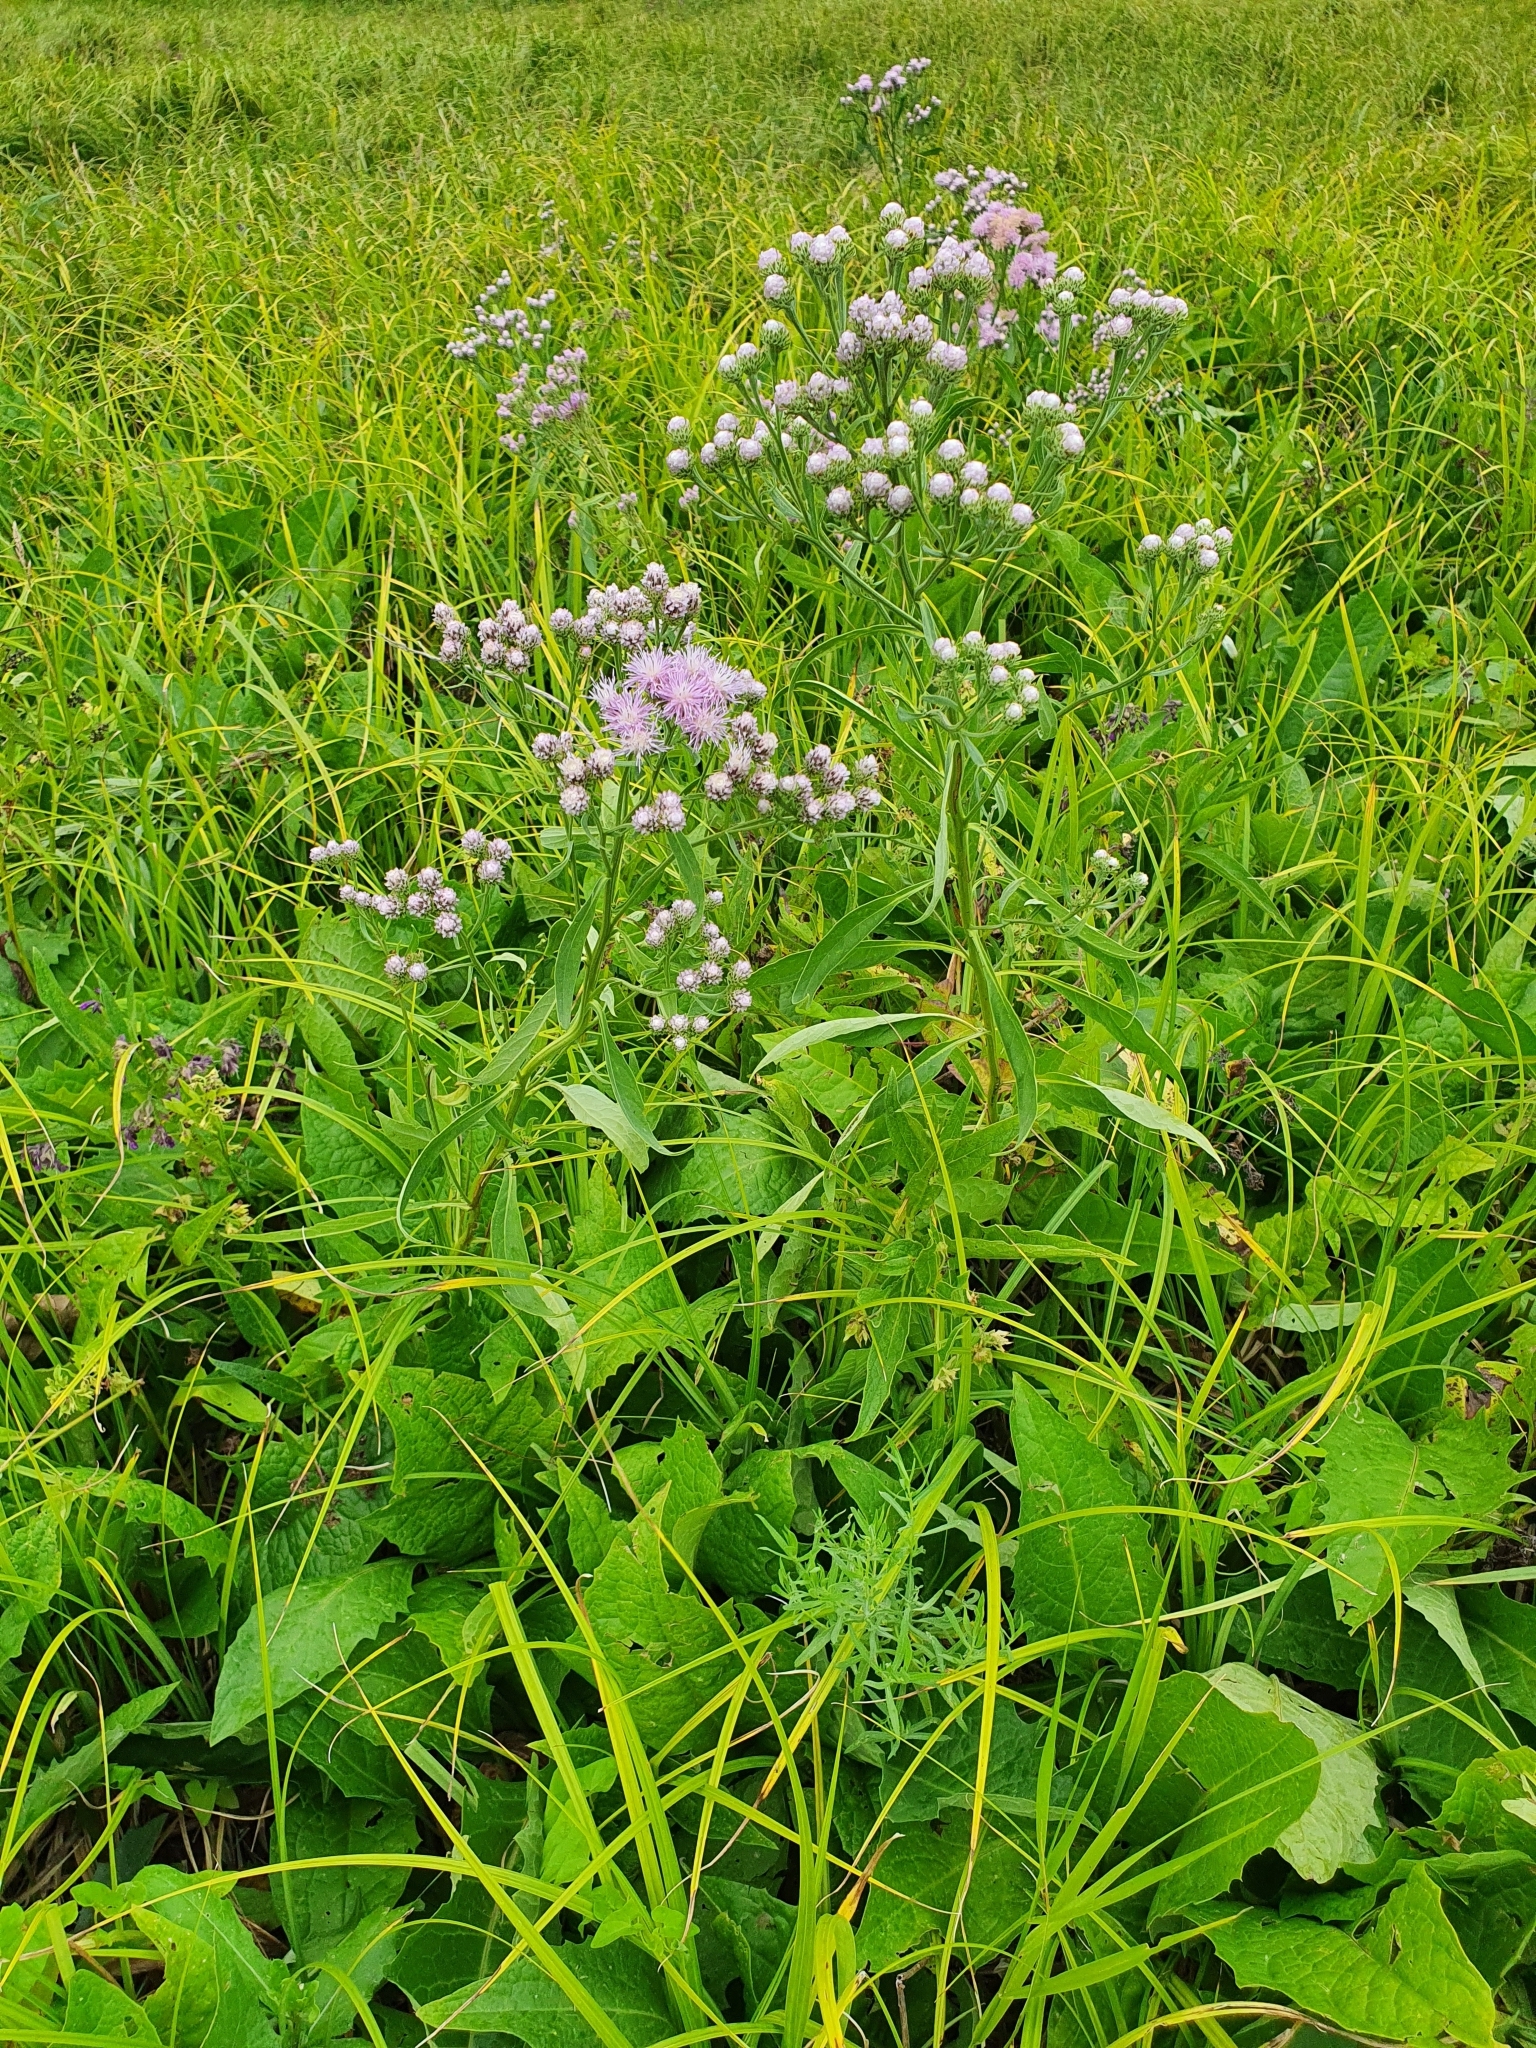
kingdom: Plantae
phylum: Tracheophyta
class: Magnoliopsida
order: Asterales
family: Asteraceae
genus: Saussurea
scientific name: Saussurea amara
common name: Alberta sawwort
